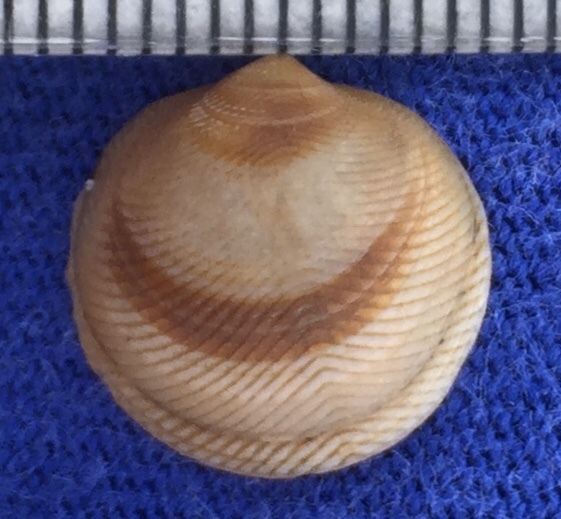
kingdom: Animalia
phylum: Mollusca
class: Bivalvia
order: Lucinida
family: Lucinidae
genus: Divalinga
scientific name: Divalinga quadrisulcata
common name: Cross-hatched lucine
